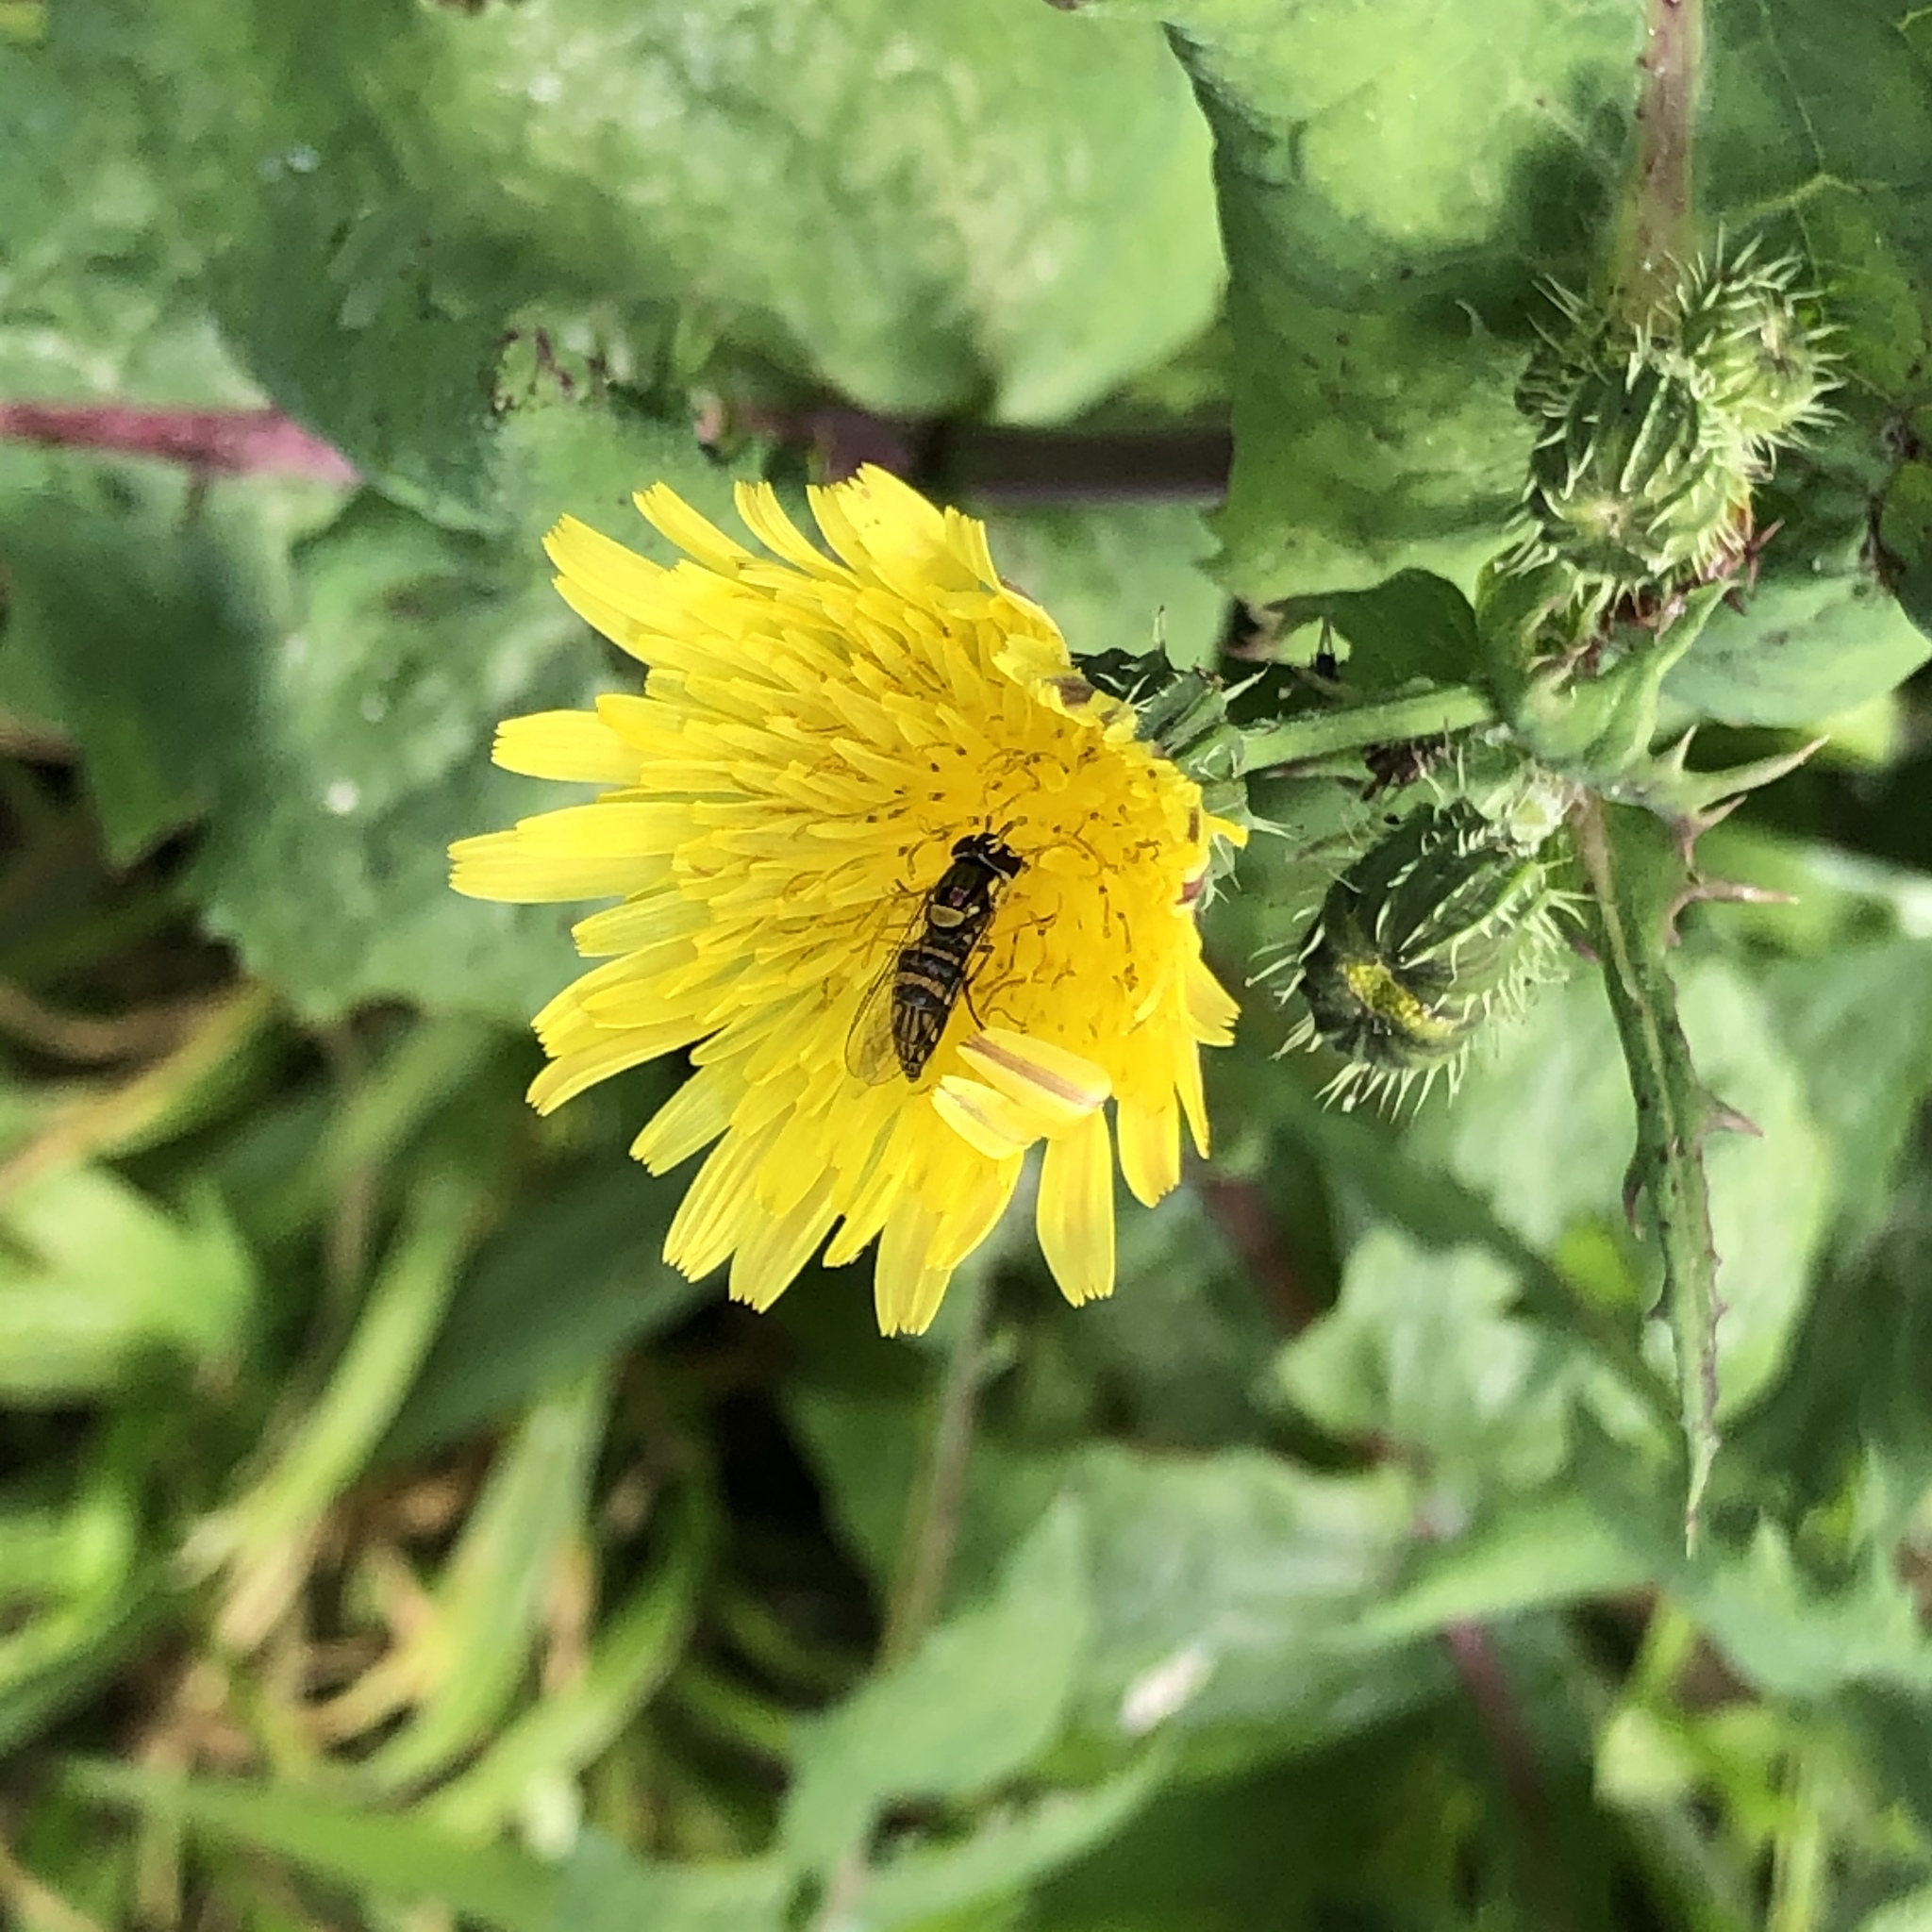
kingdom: Animalia
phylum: Arthropoda
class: Insecta
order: Diptera
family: Syrphidae
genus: Allograpta
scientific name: Allograpta obliqua
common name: Common oblique syrphid
